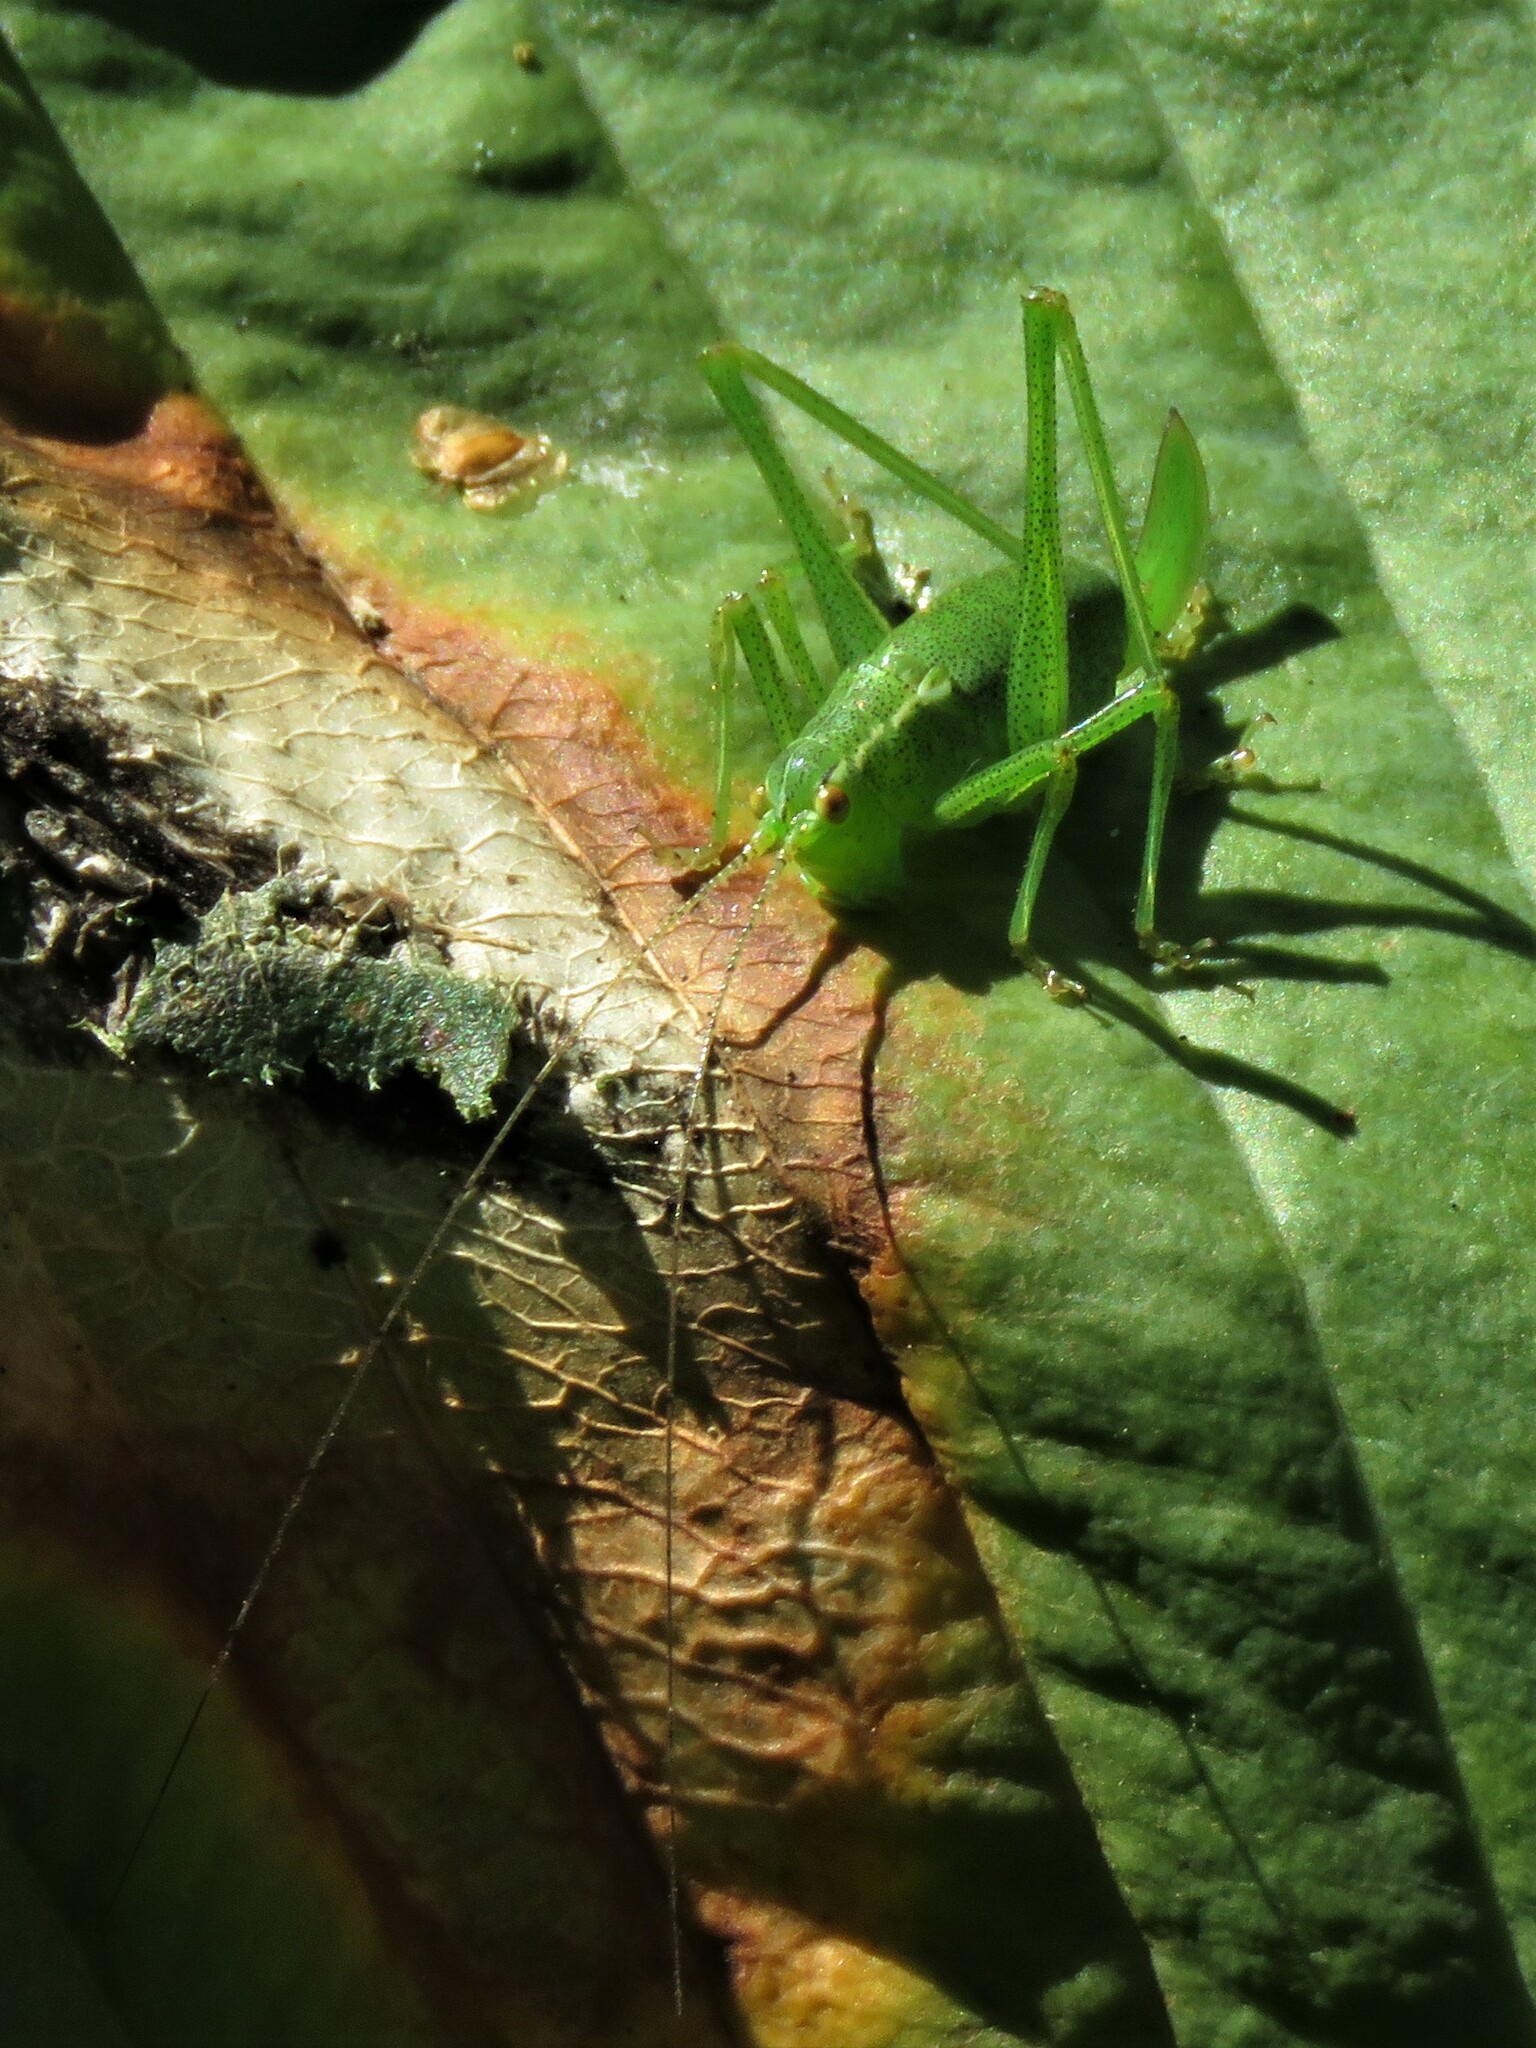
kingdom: Animalia
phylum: Arthropoda
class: Insecta
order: Orthoptera
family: Tettigoniidae
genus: Leptophyes
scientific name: Leptophyes punctatissima
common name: Speckled bush-cricket
